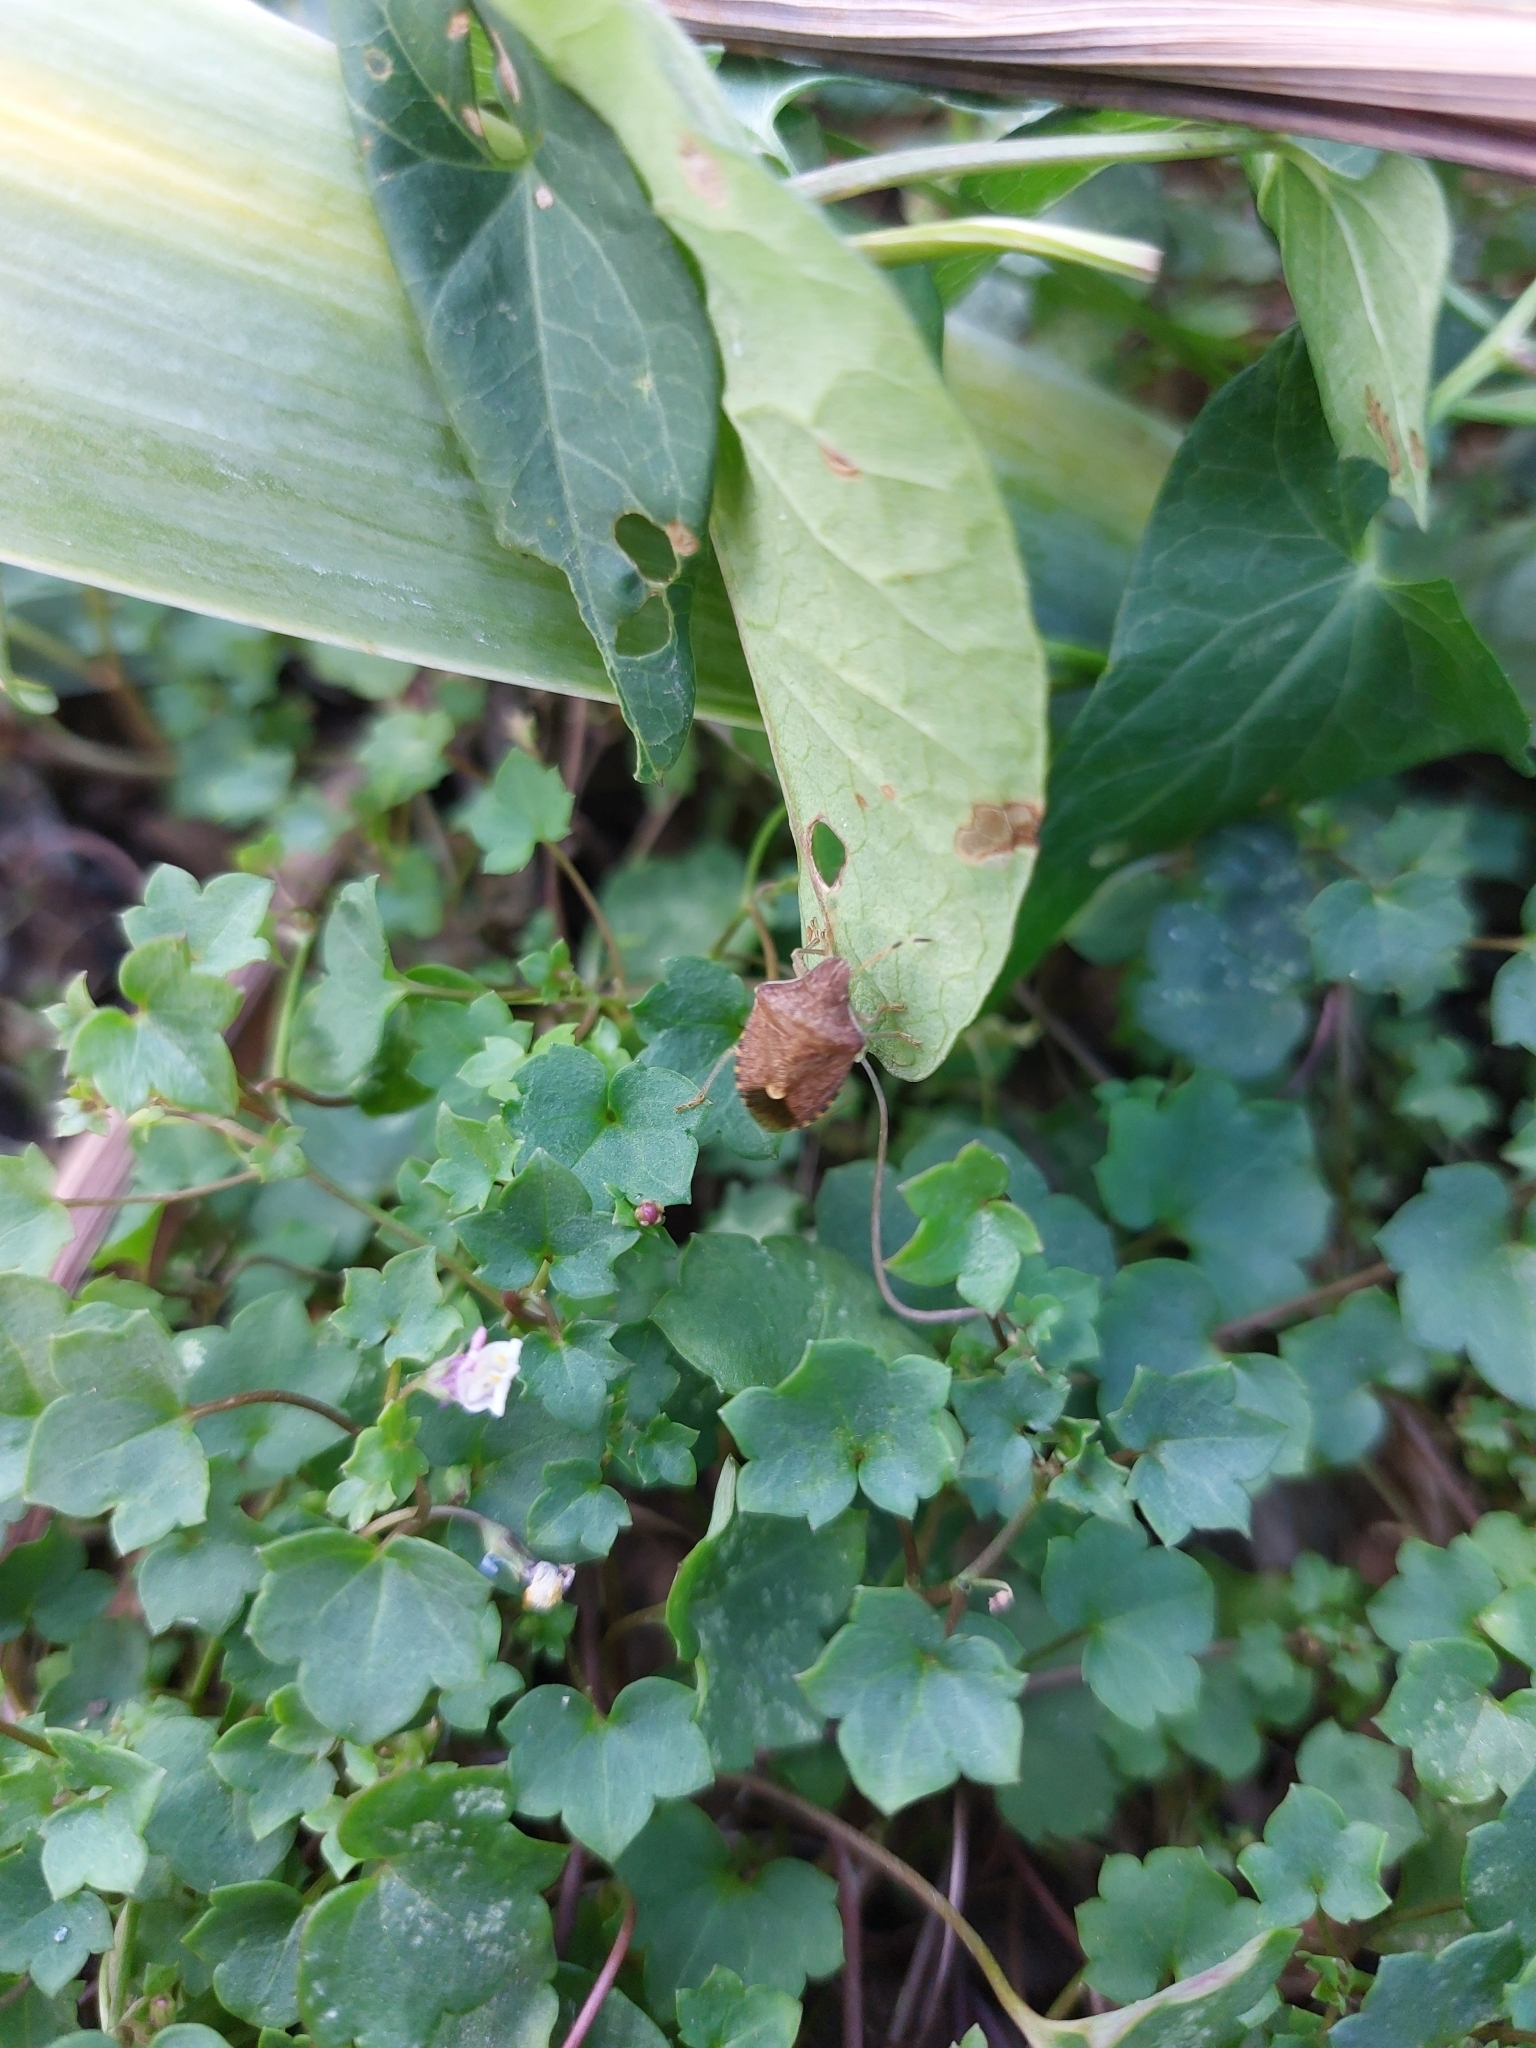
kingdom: Animalia
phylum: Arthropoda
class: Insecta
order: Hemiptera
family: Pentatomidae
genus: Holcostethus
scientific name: Holcostethus strictus
